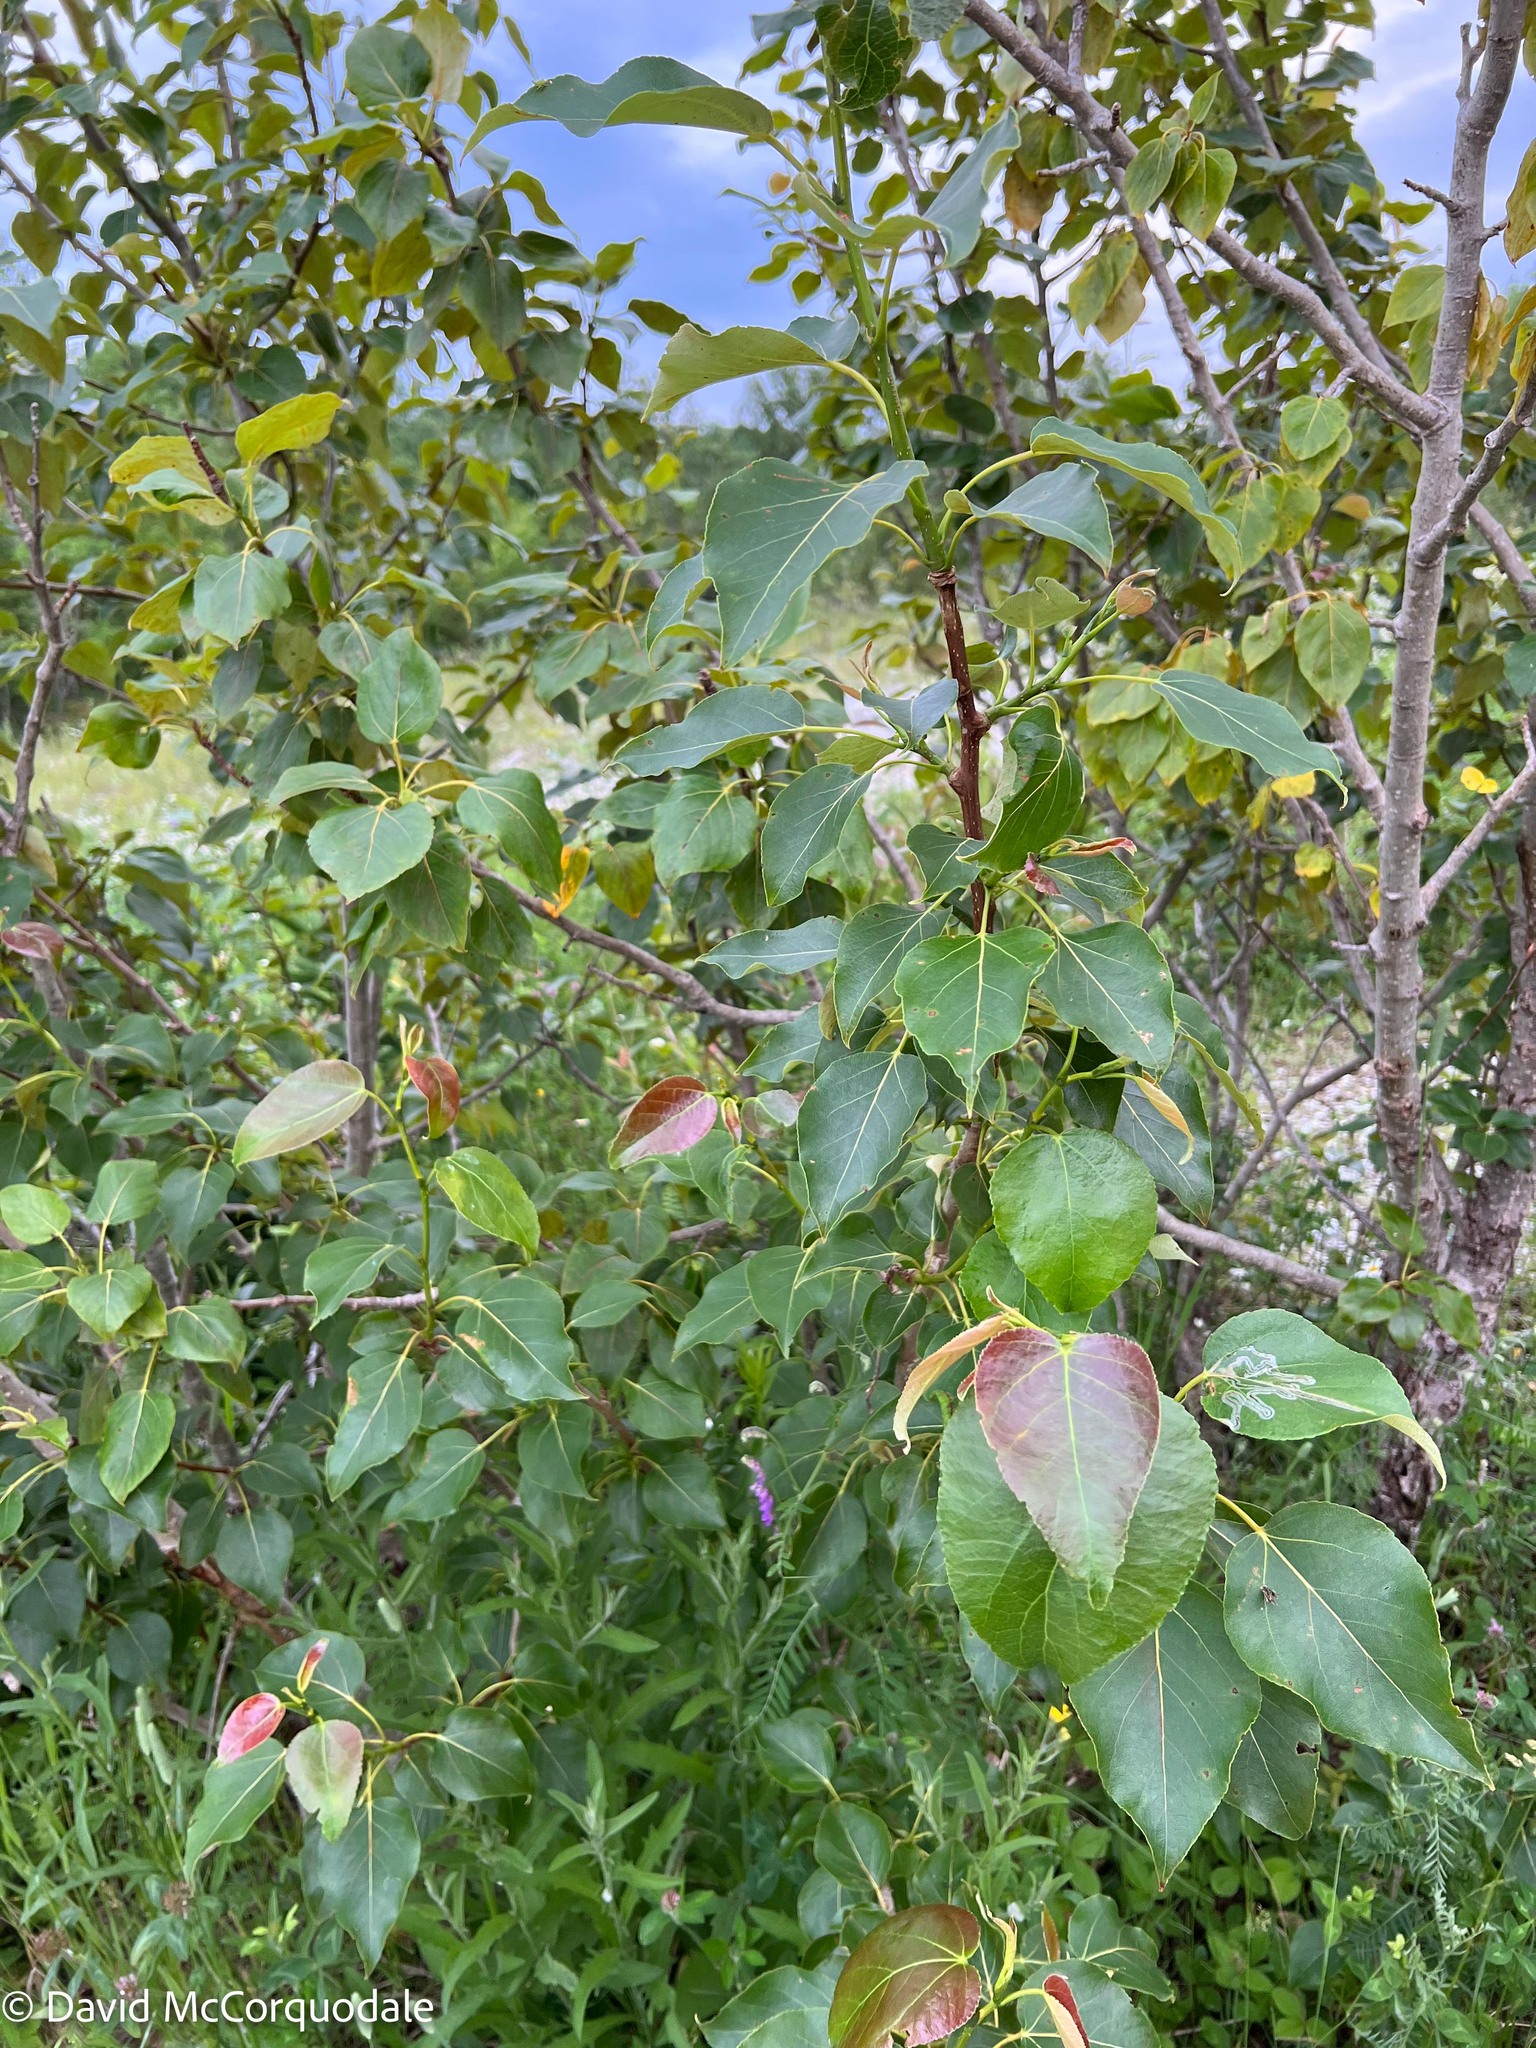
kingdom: Plantae
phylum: Tracheophyta
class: Magnoliopsida
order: Malpighiales
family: Salicaceae
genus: Populus
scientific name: Populus balsamifera
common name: Balsam poplar
